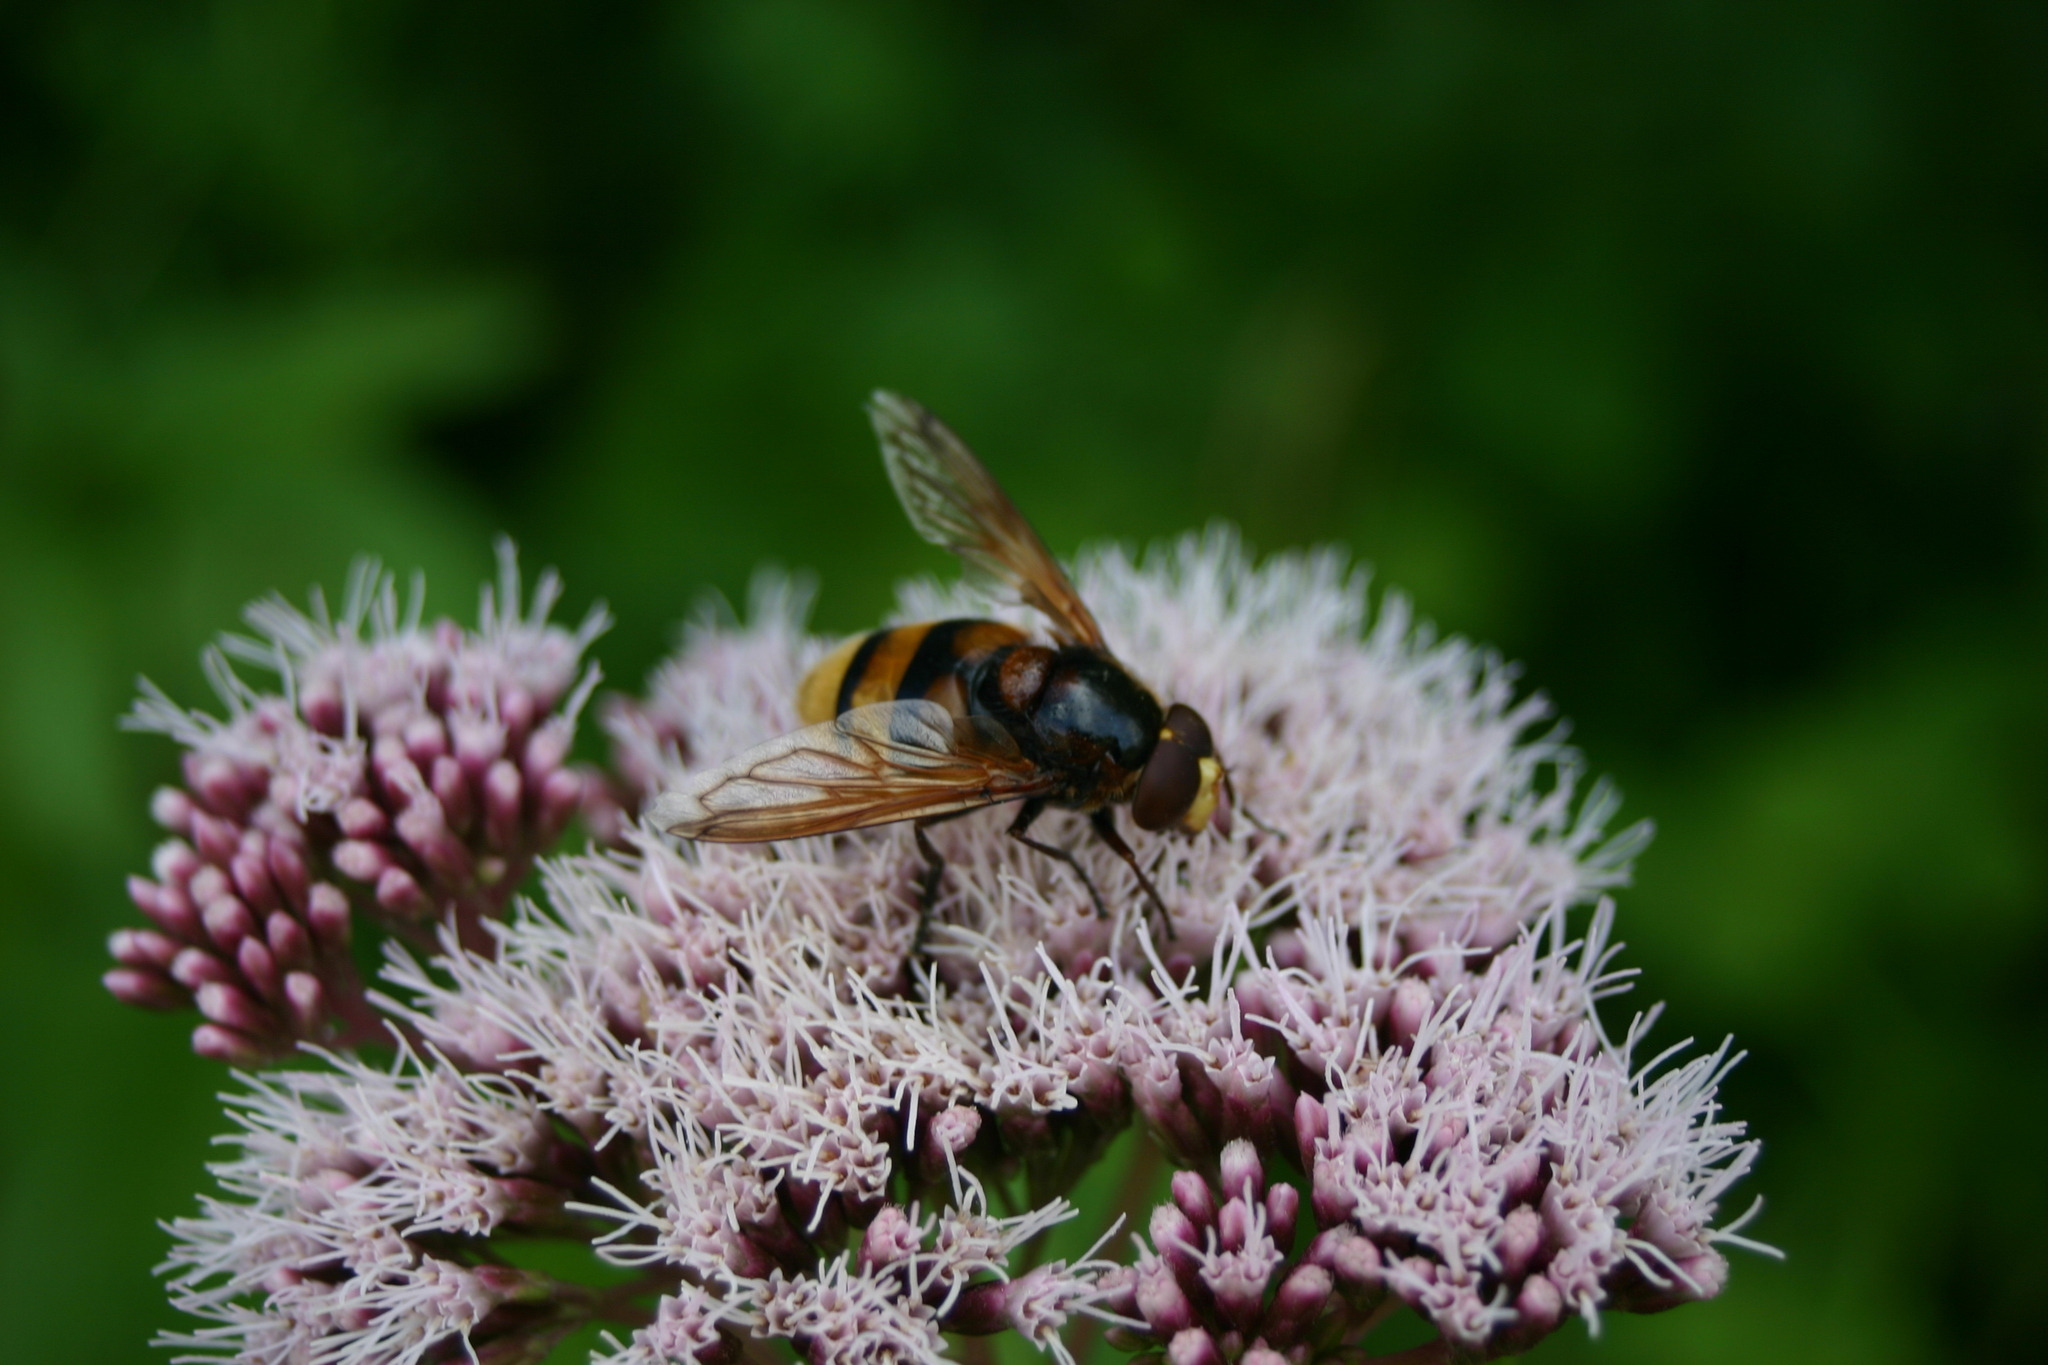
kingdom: Animalia
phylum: Arthropoda
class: Insecta
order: Diptera
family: Syrphidae
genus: Volucella
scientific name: Volucella zonaria
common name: Hornet hoverfly
